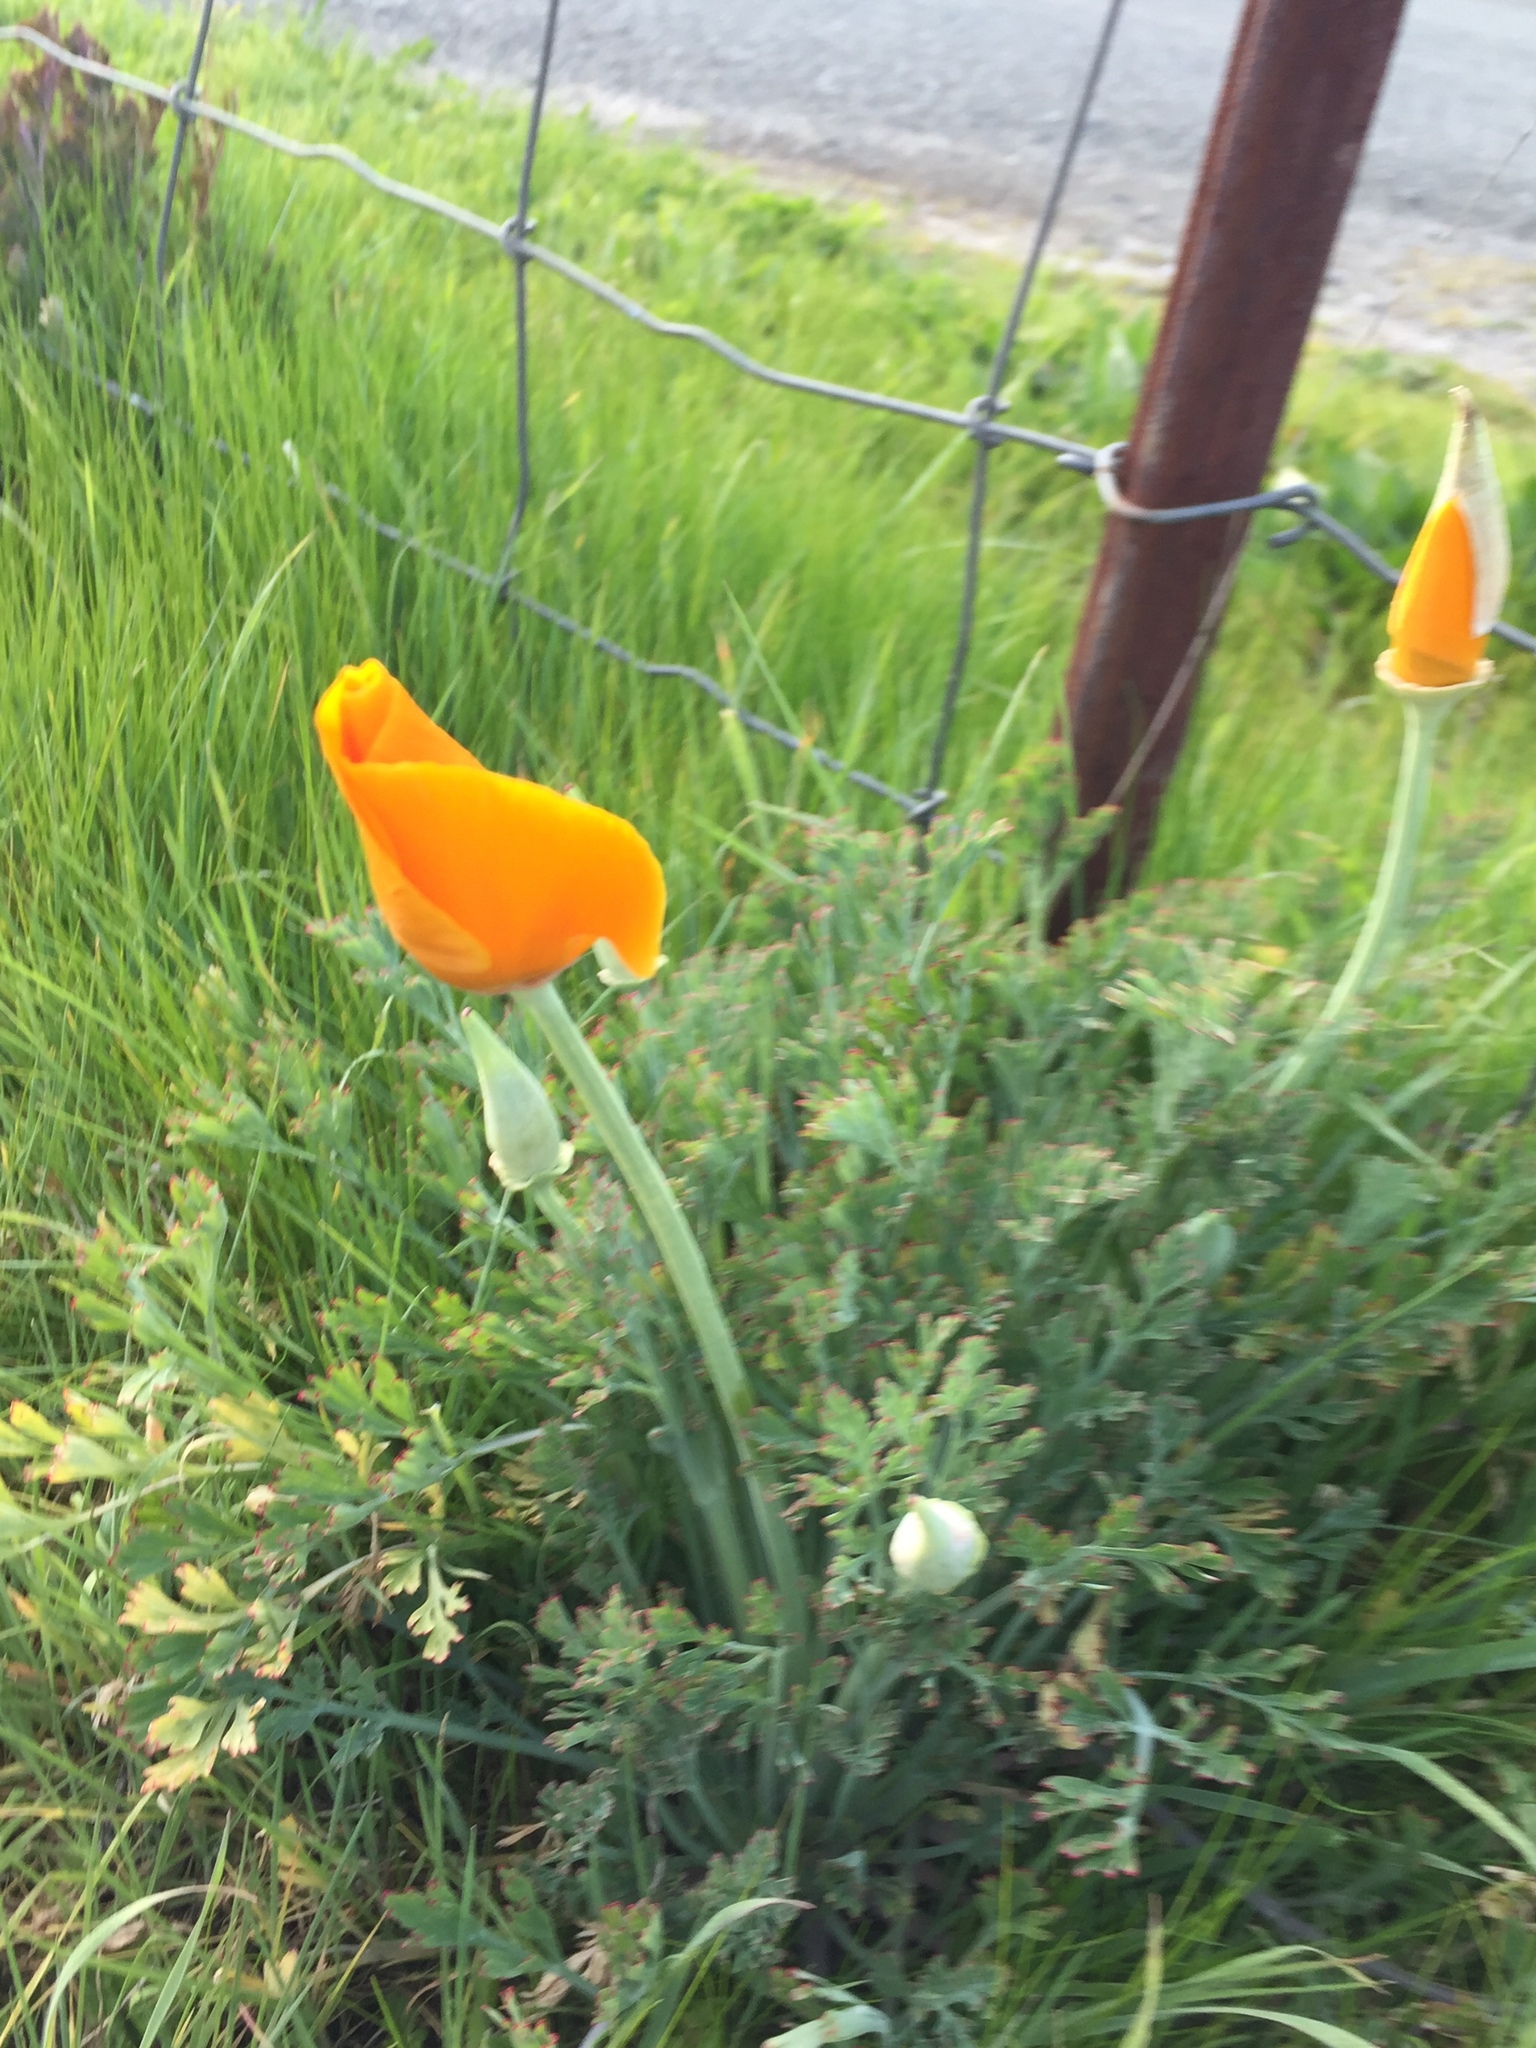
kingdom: Plantae
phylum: Tracheophyta
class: Magnoliopsida
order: Ranunculales
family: Papaveraceae
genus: Eschscholzia
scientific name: Eschscholzia californica
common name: California poppy
